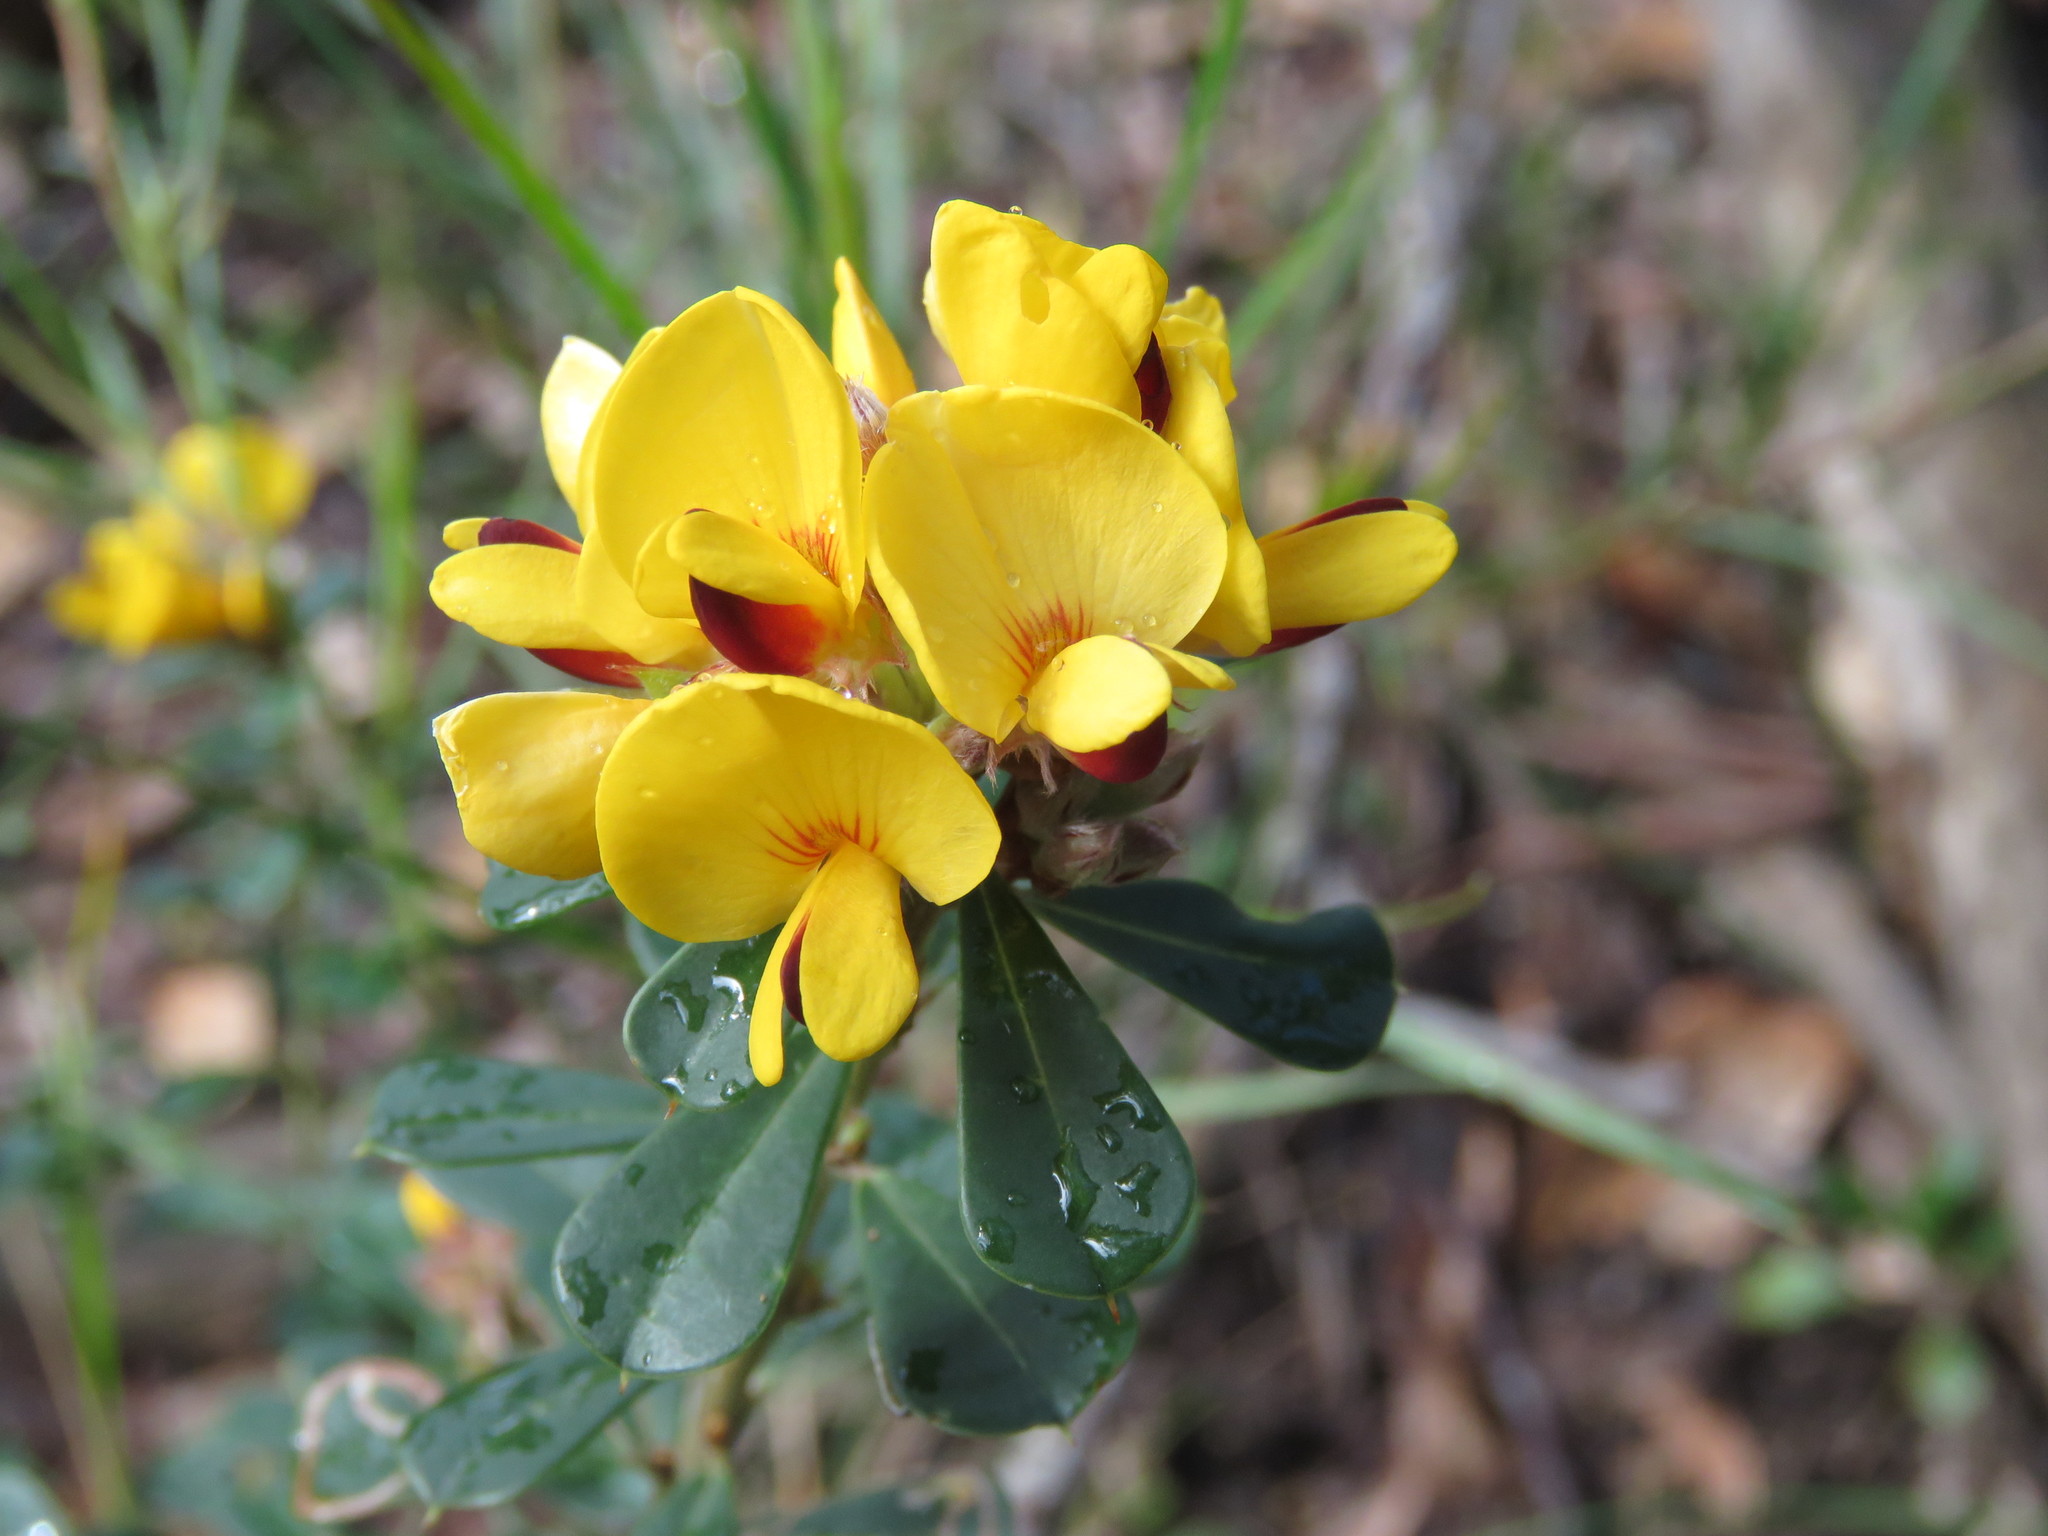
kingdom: Plantae
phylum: Tracheophyta
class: Magnoliopsida
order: Fabales
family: Fabaceae
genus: Pultenaea
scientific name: Pultenaea daphnoides
